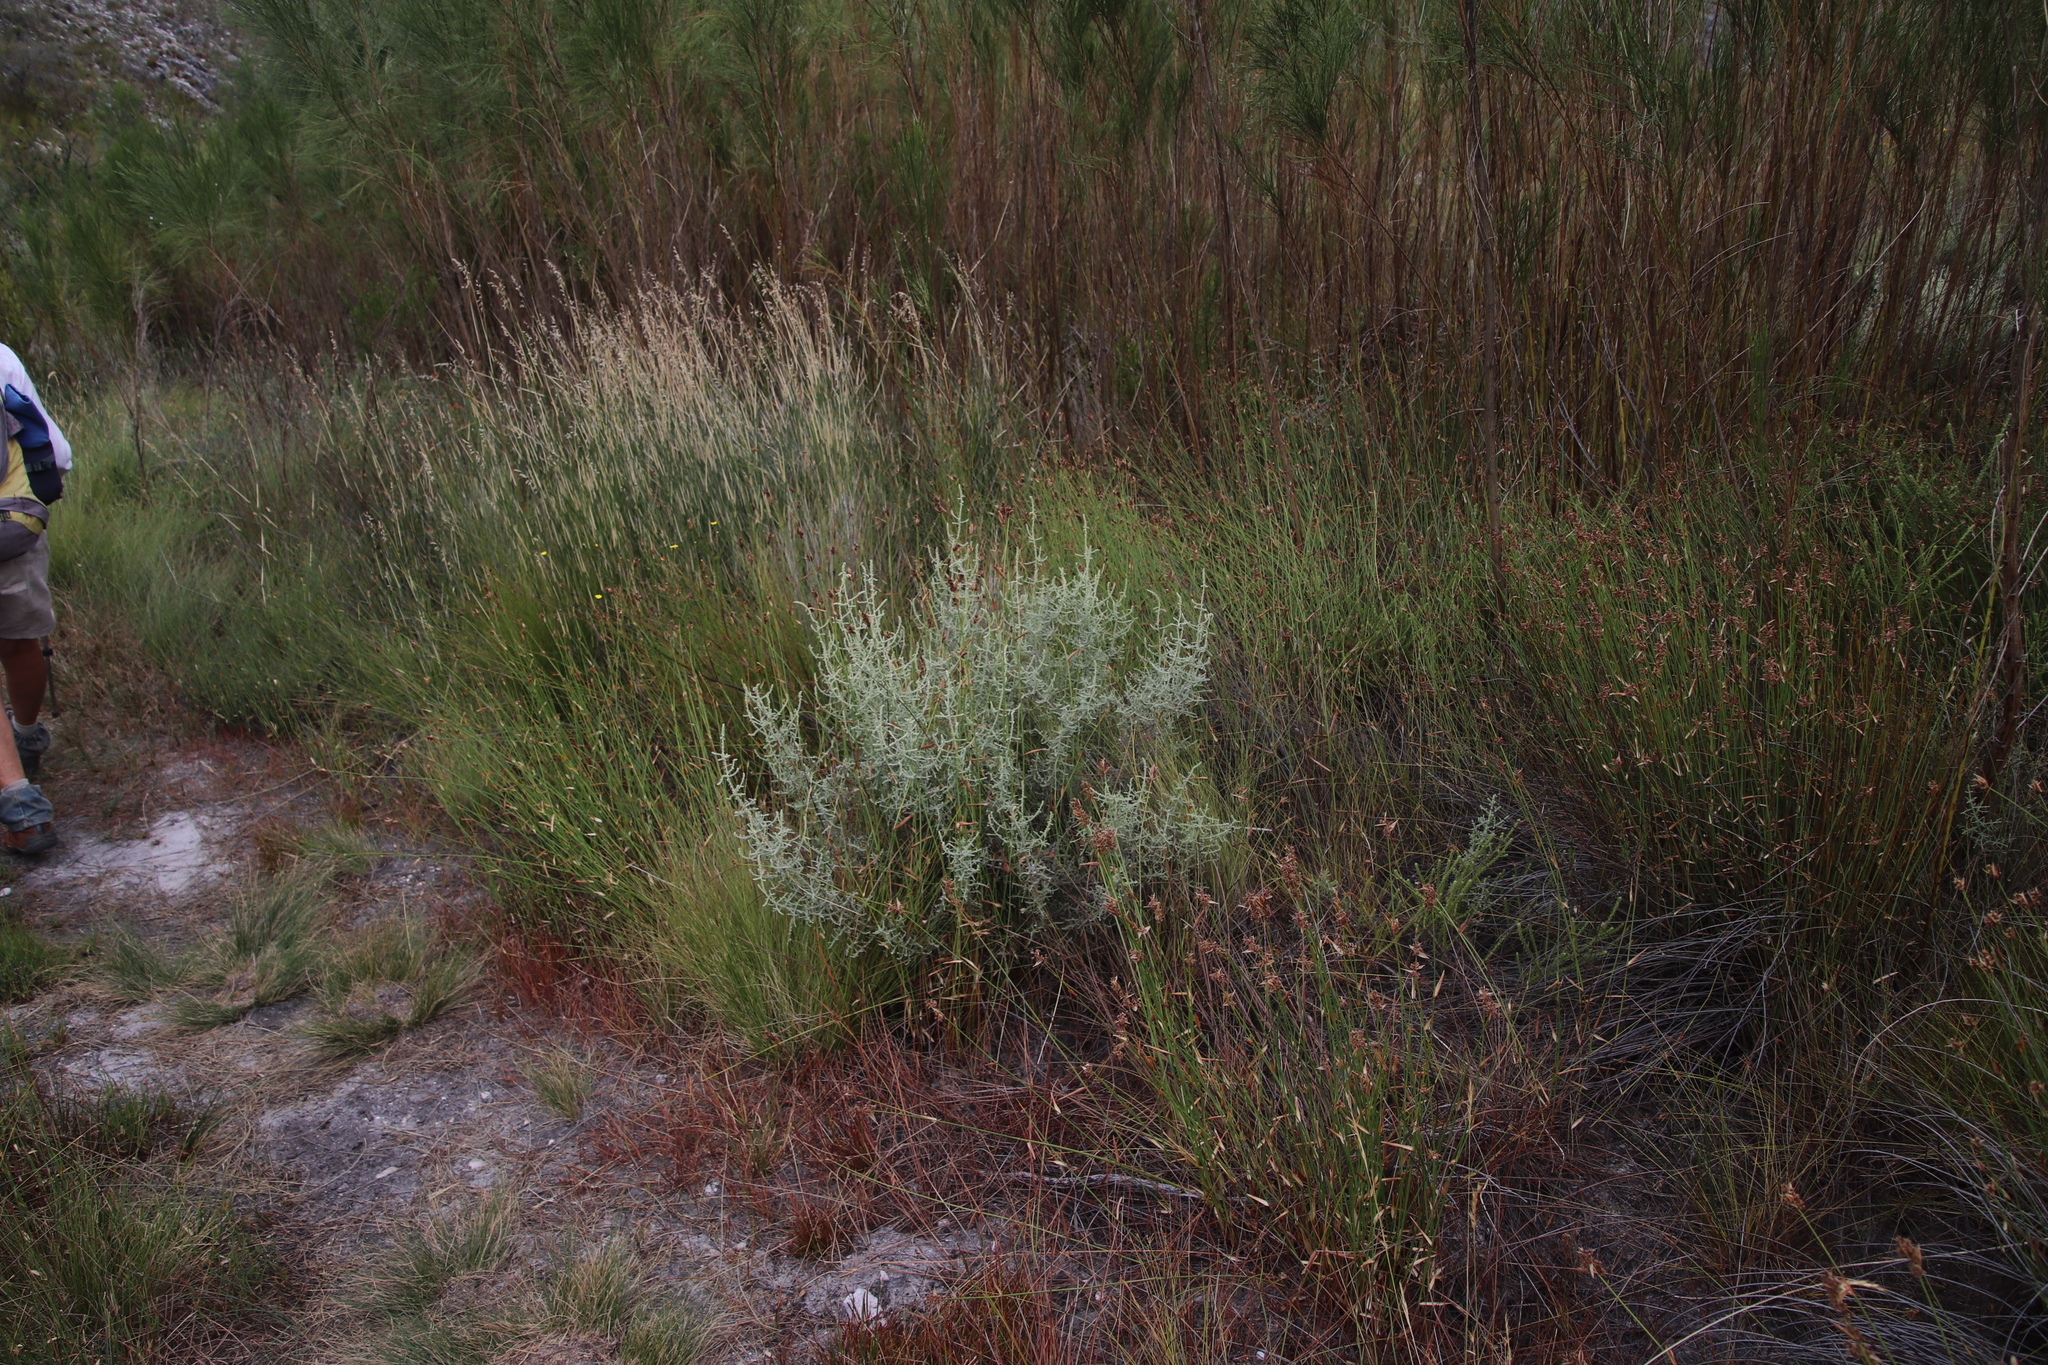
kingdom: Plantae
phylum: Tracheophyta
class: Magnoliopsida
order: Asterales
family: Asteraceae
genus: Seriphium
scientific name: Seriphium plumosum
